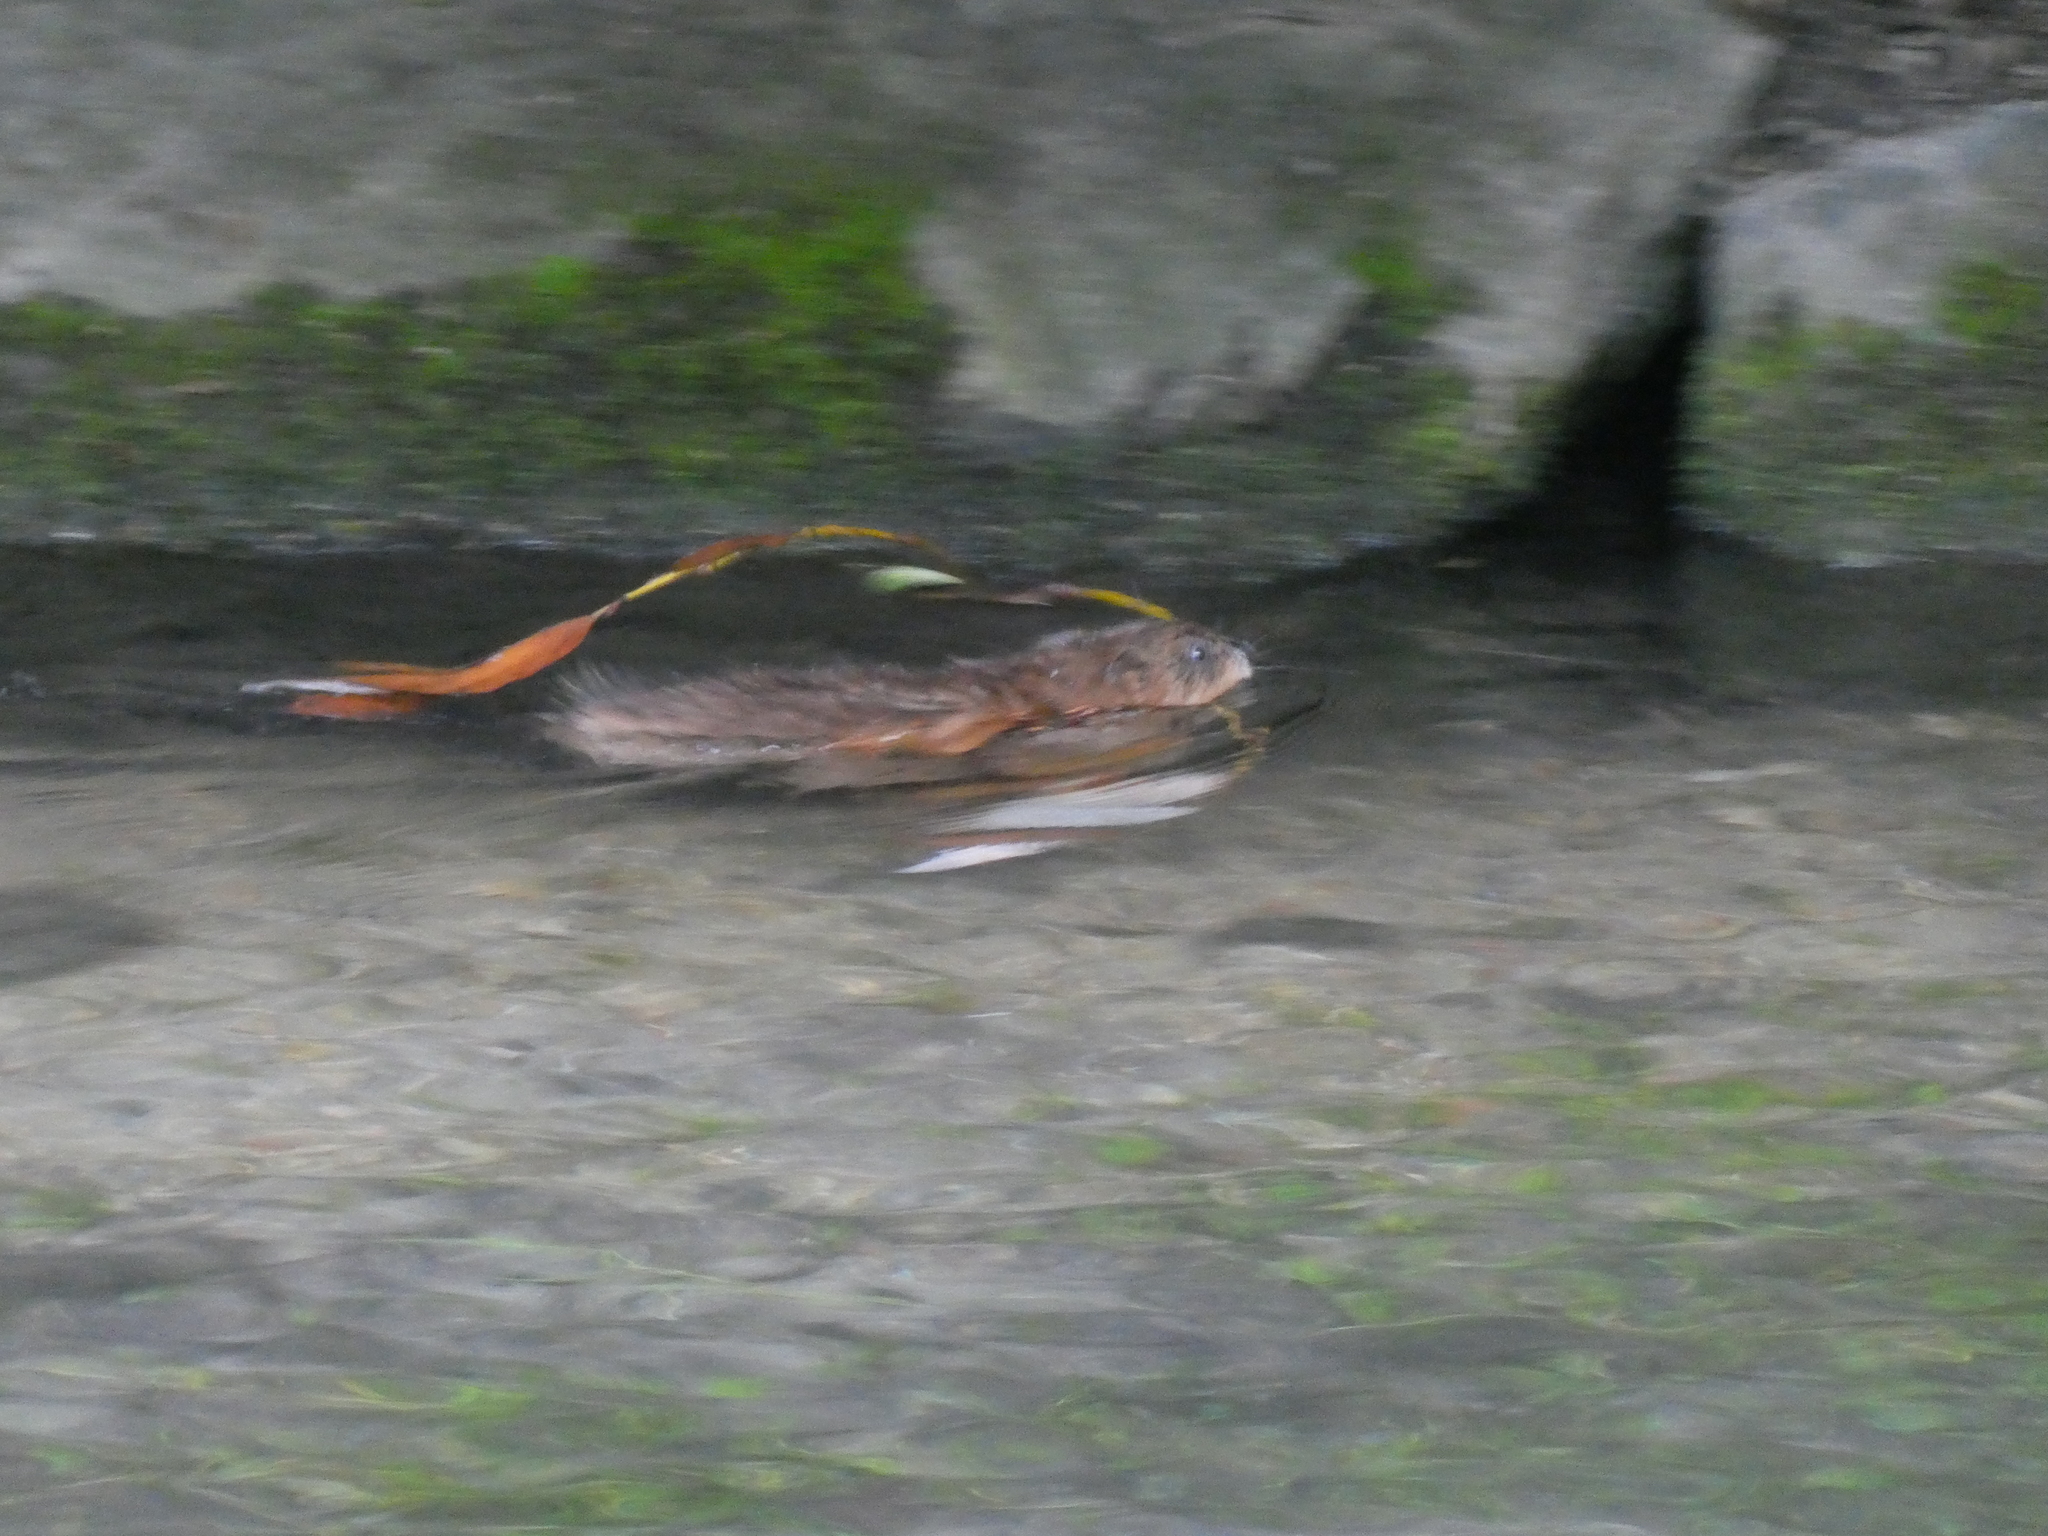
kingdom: Animalia
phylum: Chordata
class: Mammalia
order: Rodentia
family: Cricetidae
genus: Ondatra
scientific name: Ondatra zibethicus
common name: Muskrat
